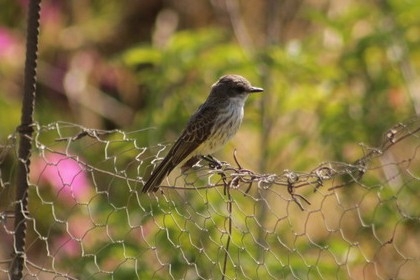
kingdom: Animalia
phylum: Chordata
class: Aves
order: Passeriformes
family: Tyrannidae
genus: Pyrocephalus
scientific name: Pyrocephalus rubinus
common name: Vermilion flycatcher
